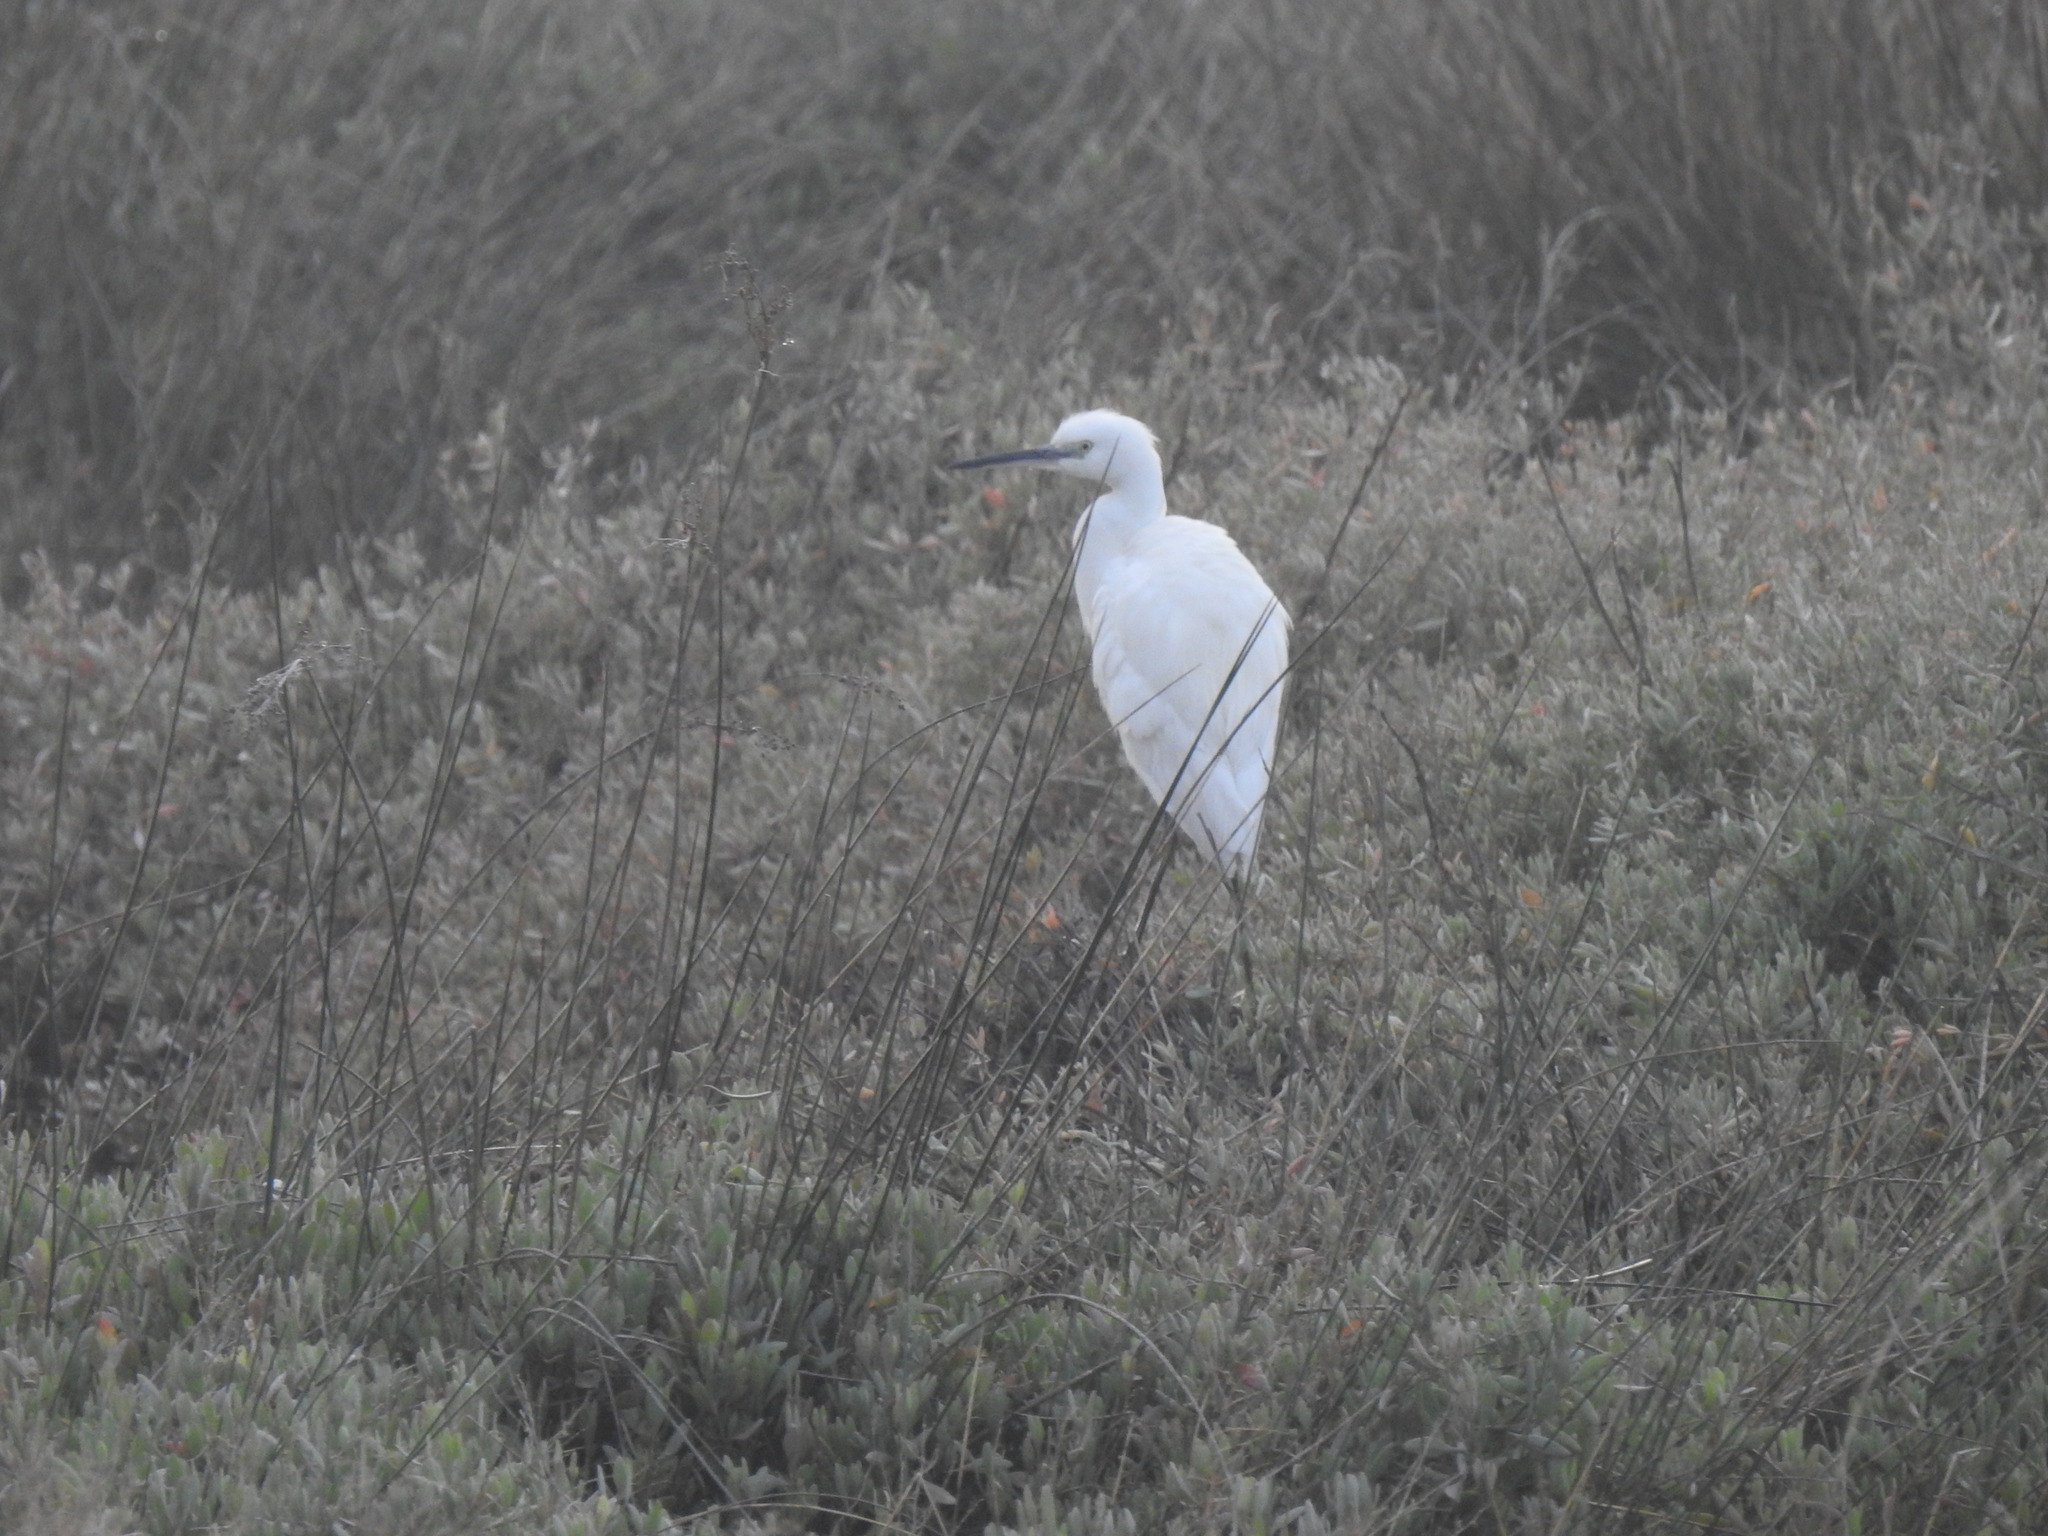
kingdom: Animalia
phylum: Chordata
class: Aves
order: Pelecaniformes
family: Ardeidae
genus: Egretta
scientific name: Egretta garzetta
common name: Little egret
